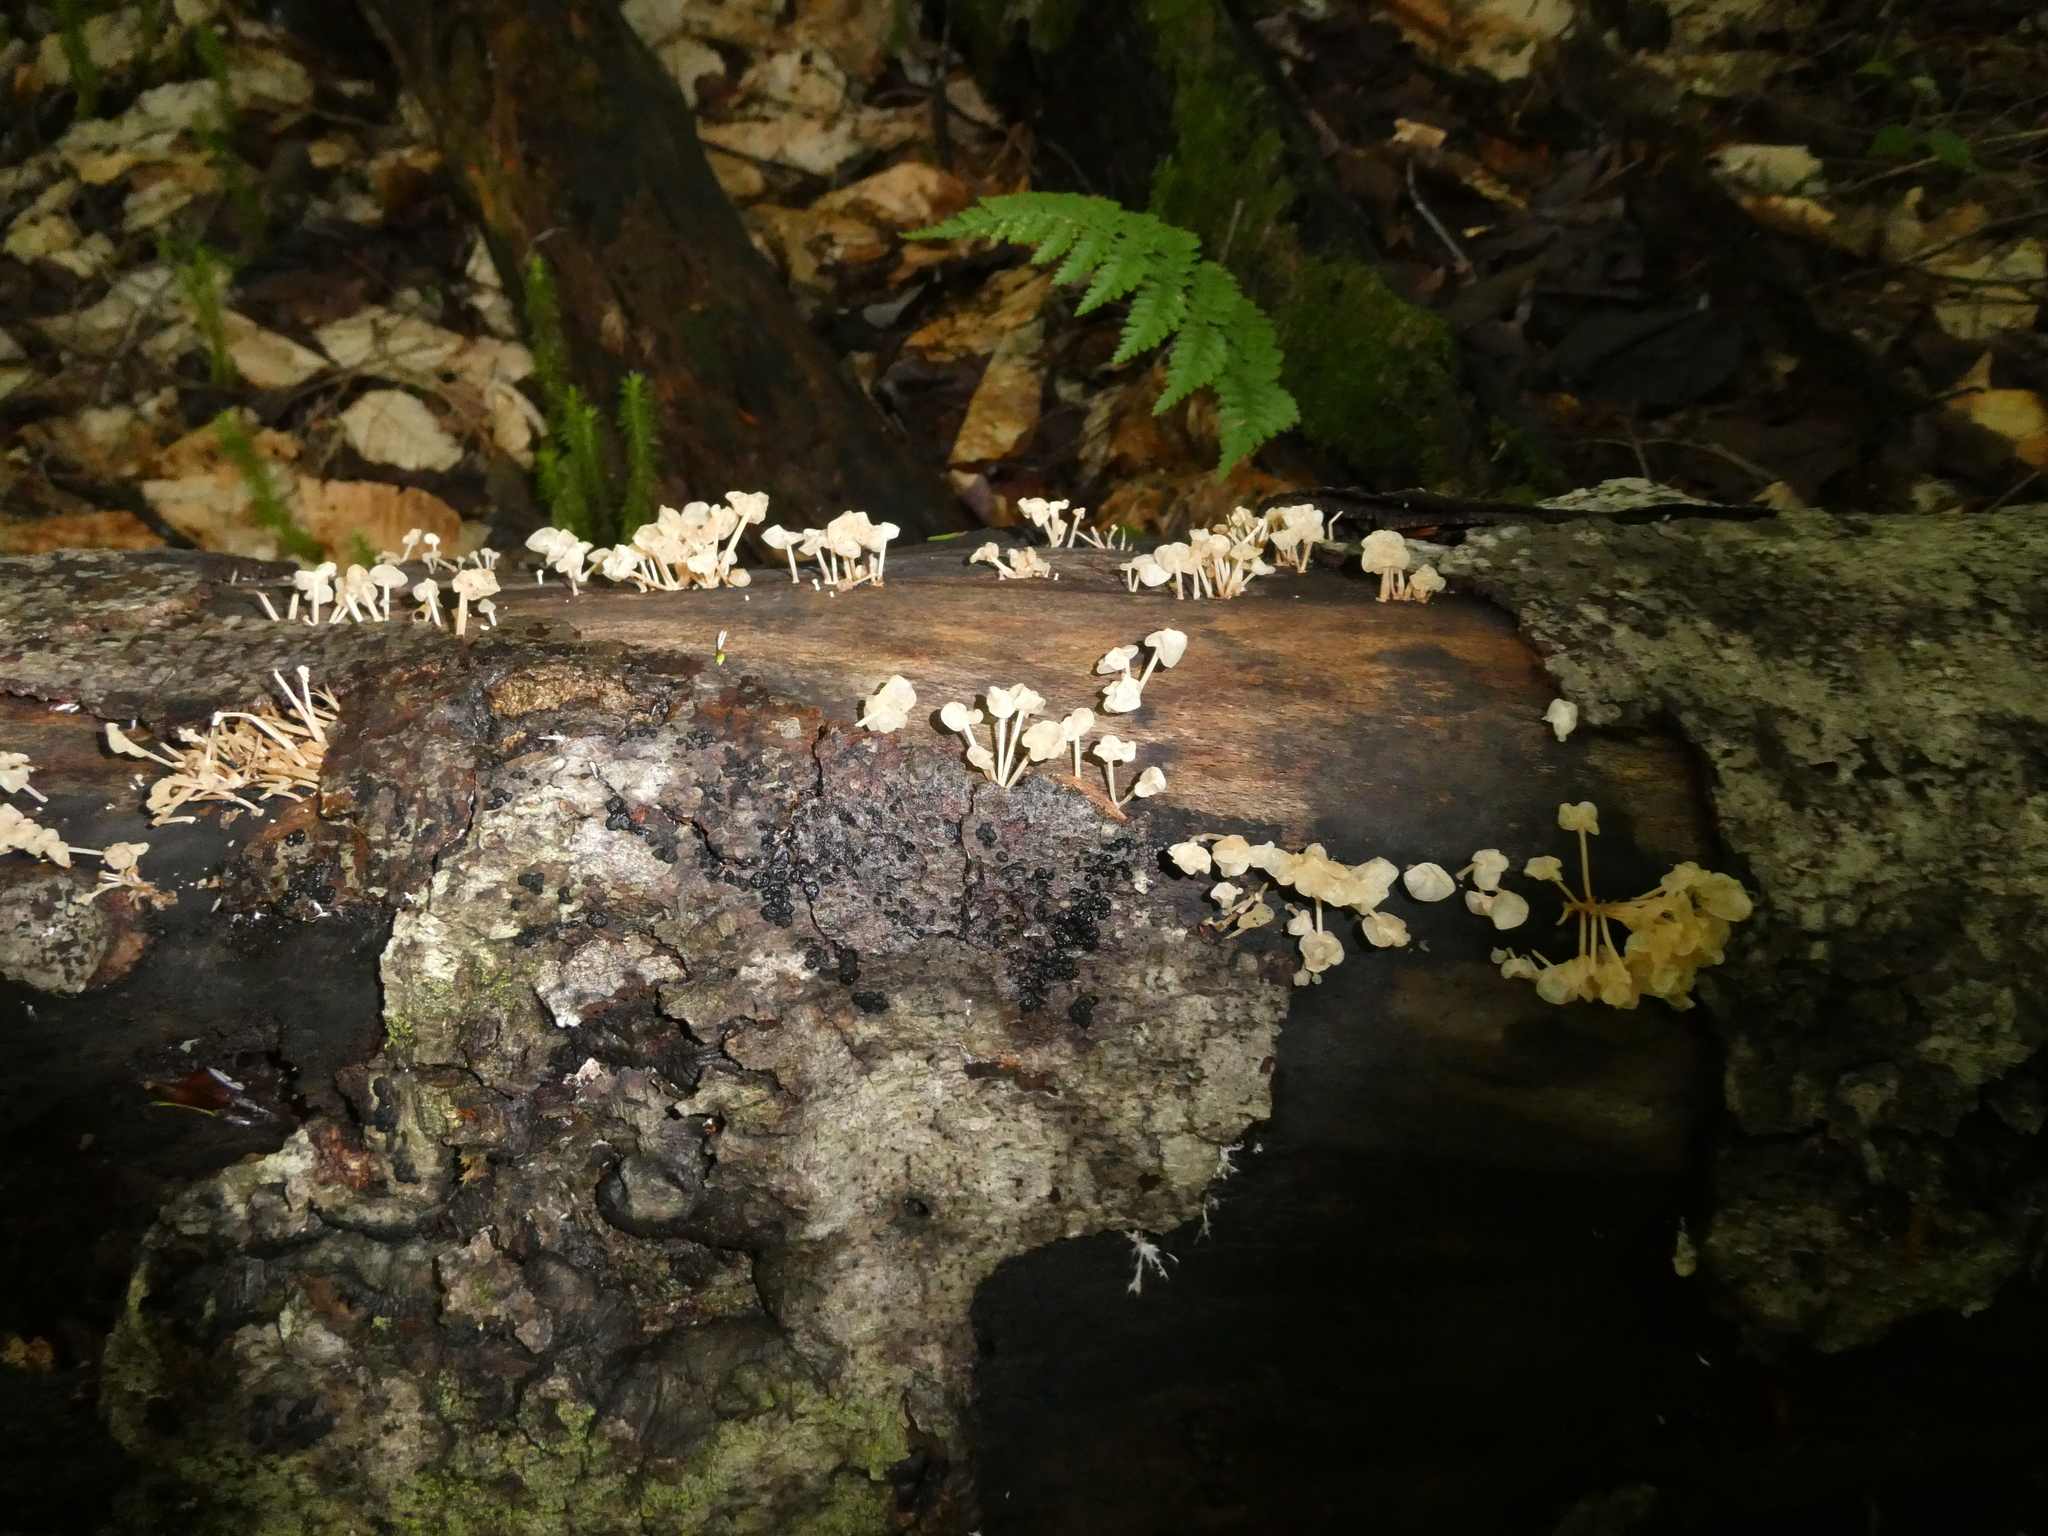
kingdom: Fungi
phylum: Basidiomycota
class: Agaricomycetes
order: Agaricales
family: Physalacriaceae
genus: Physalacria
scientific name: Physalacria inflata
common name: Bladder stalks
